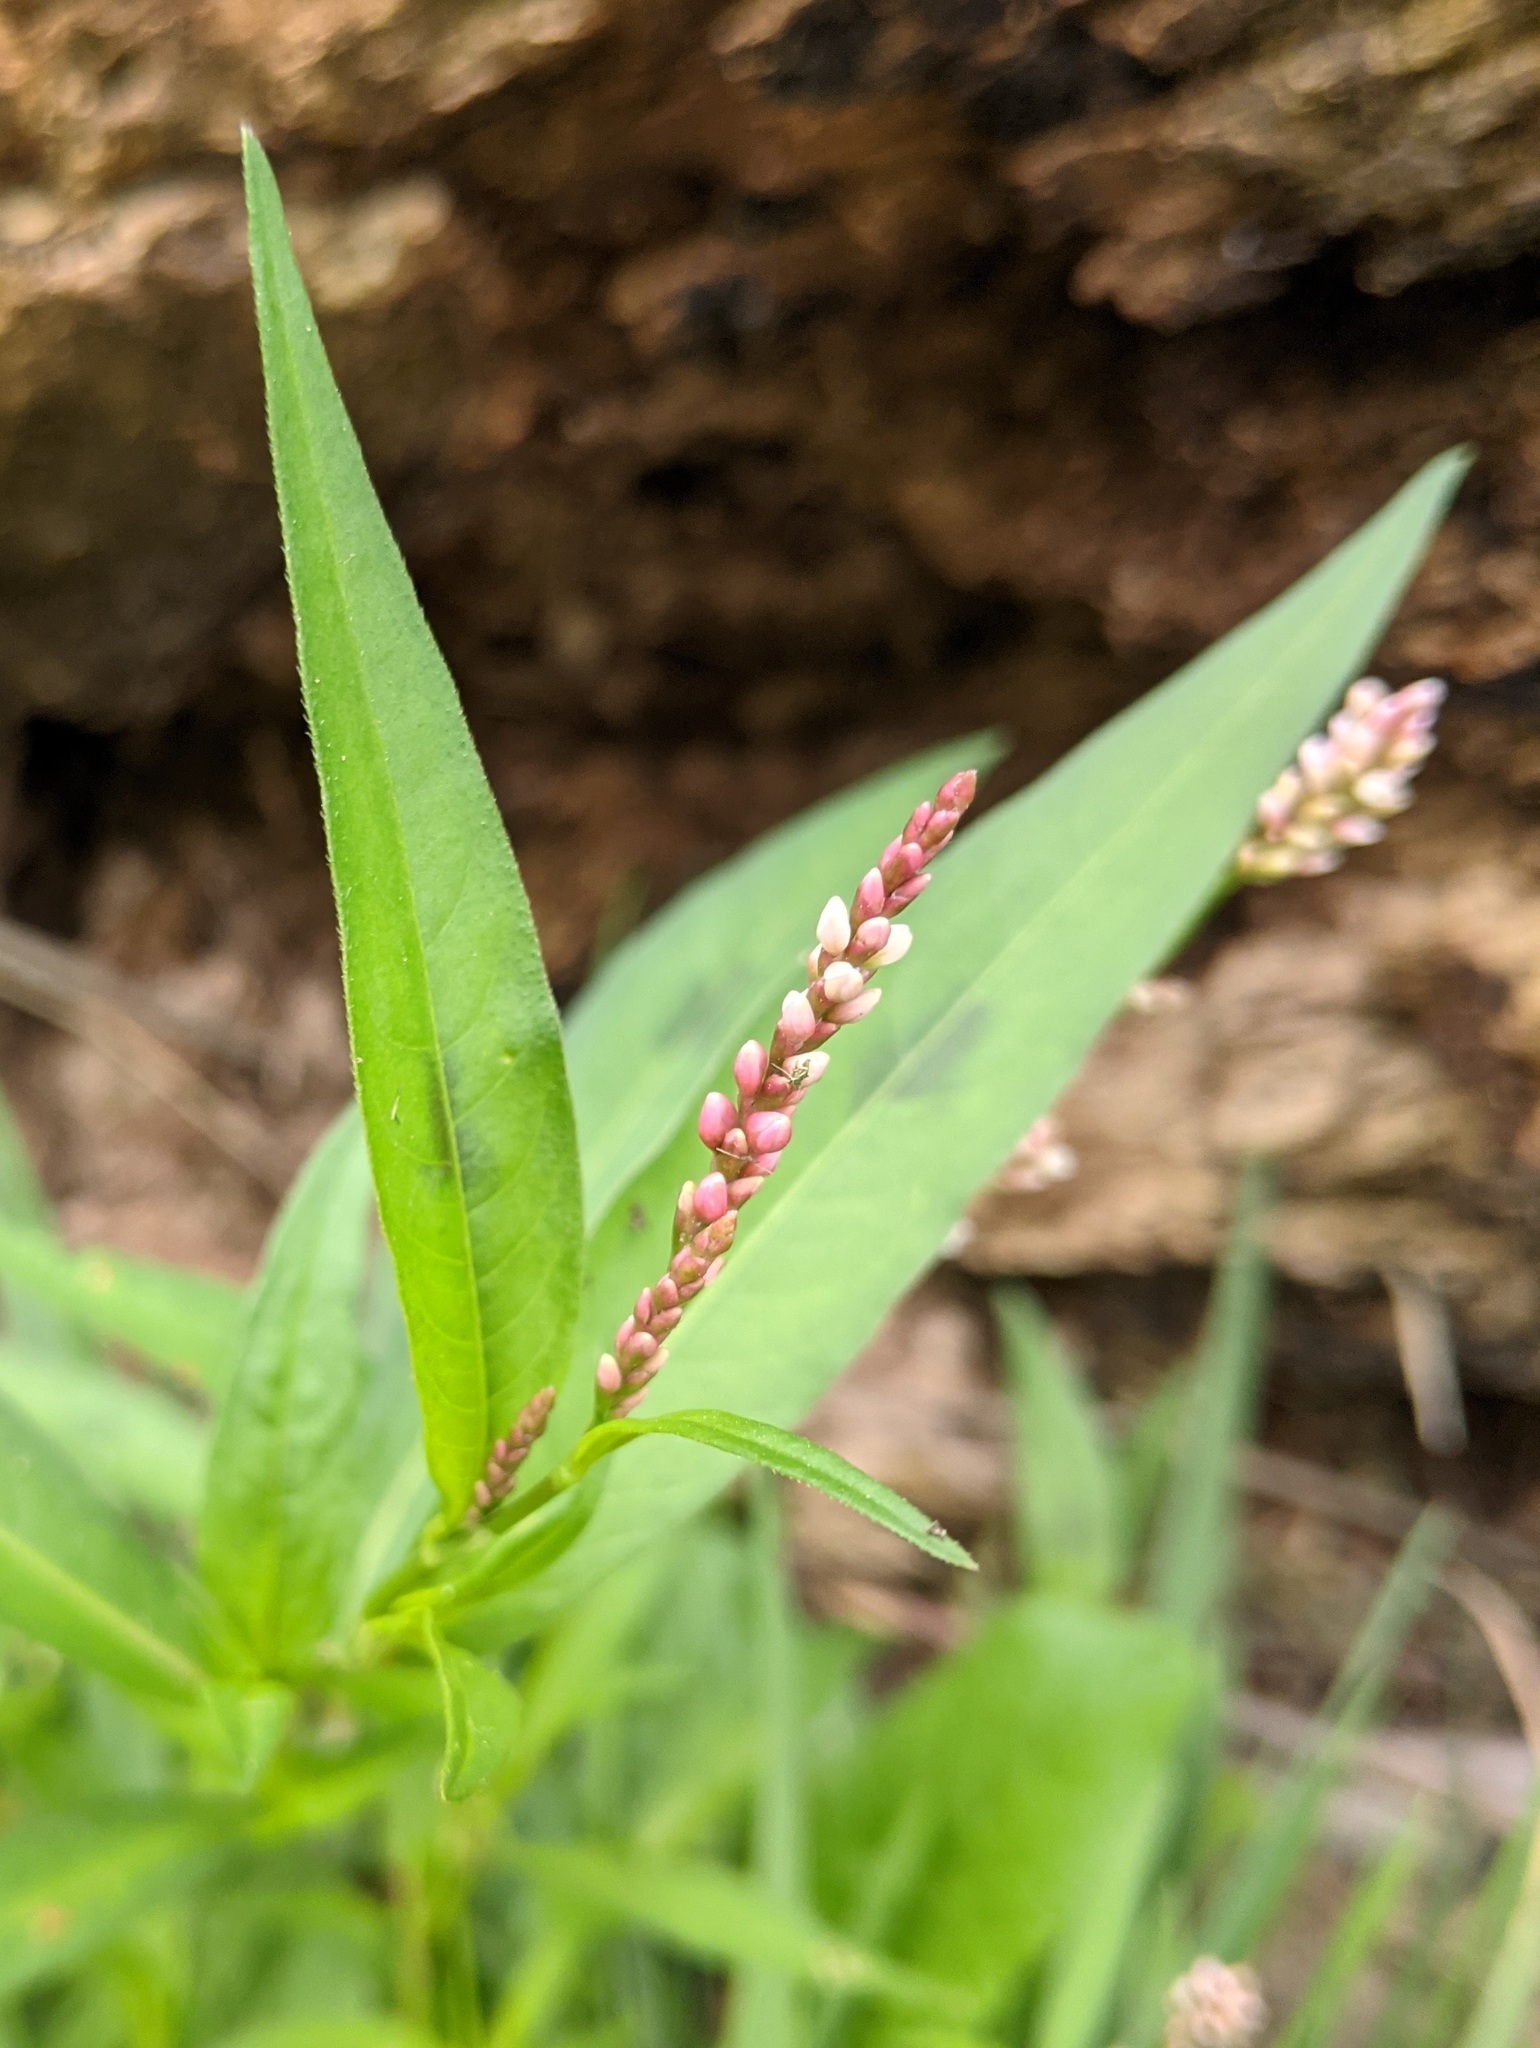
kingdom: Plantae
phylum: Tracheophyta
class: Magnoliopsida
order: Caryophyllales
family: Polygonaceae
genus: Persicaria
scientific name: Persicaria maculosa
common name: Redshank
